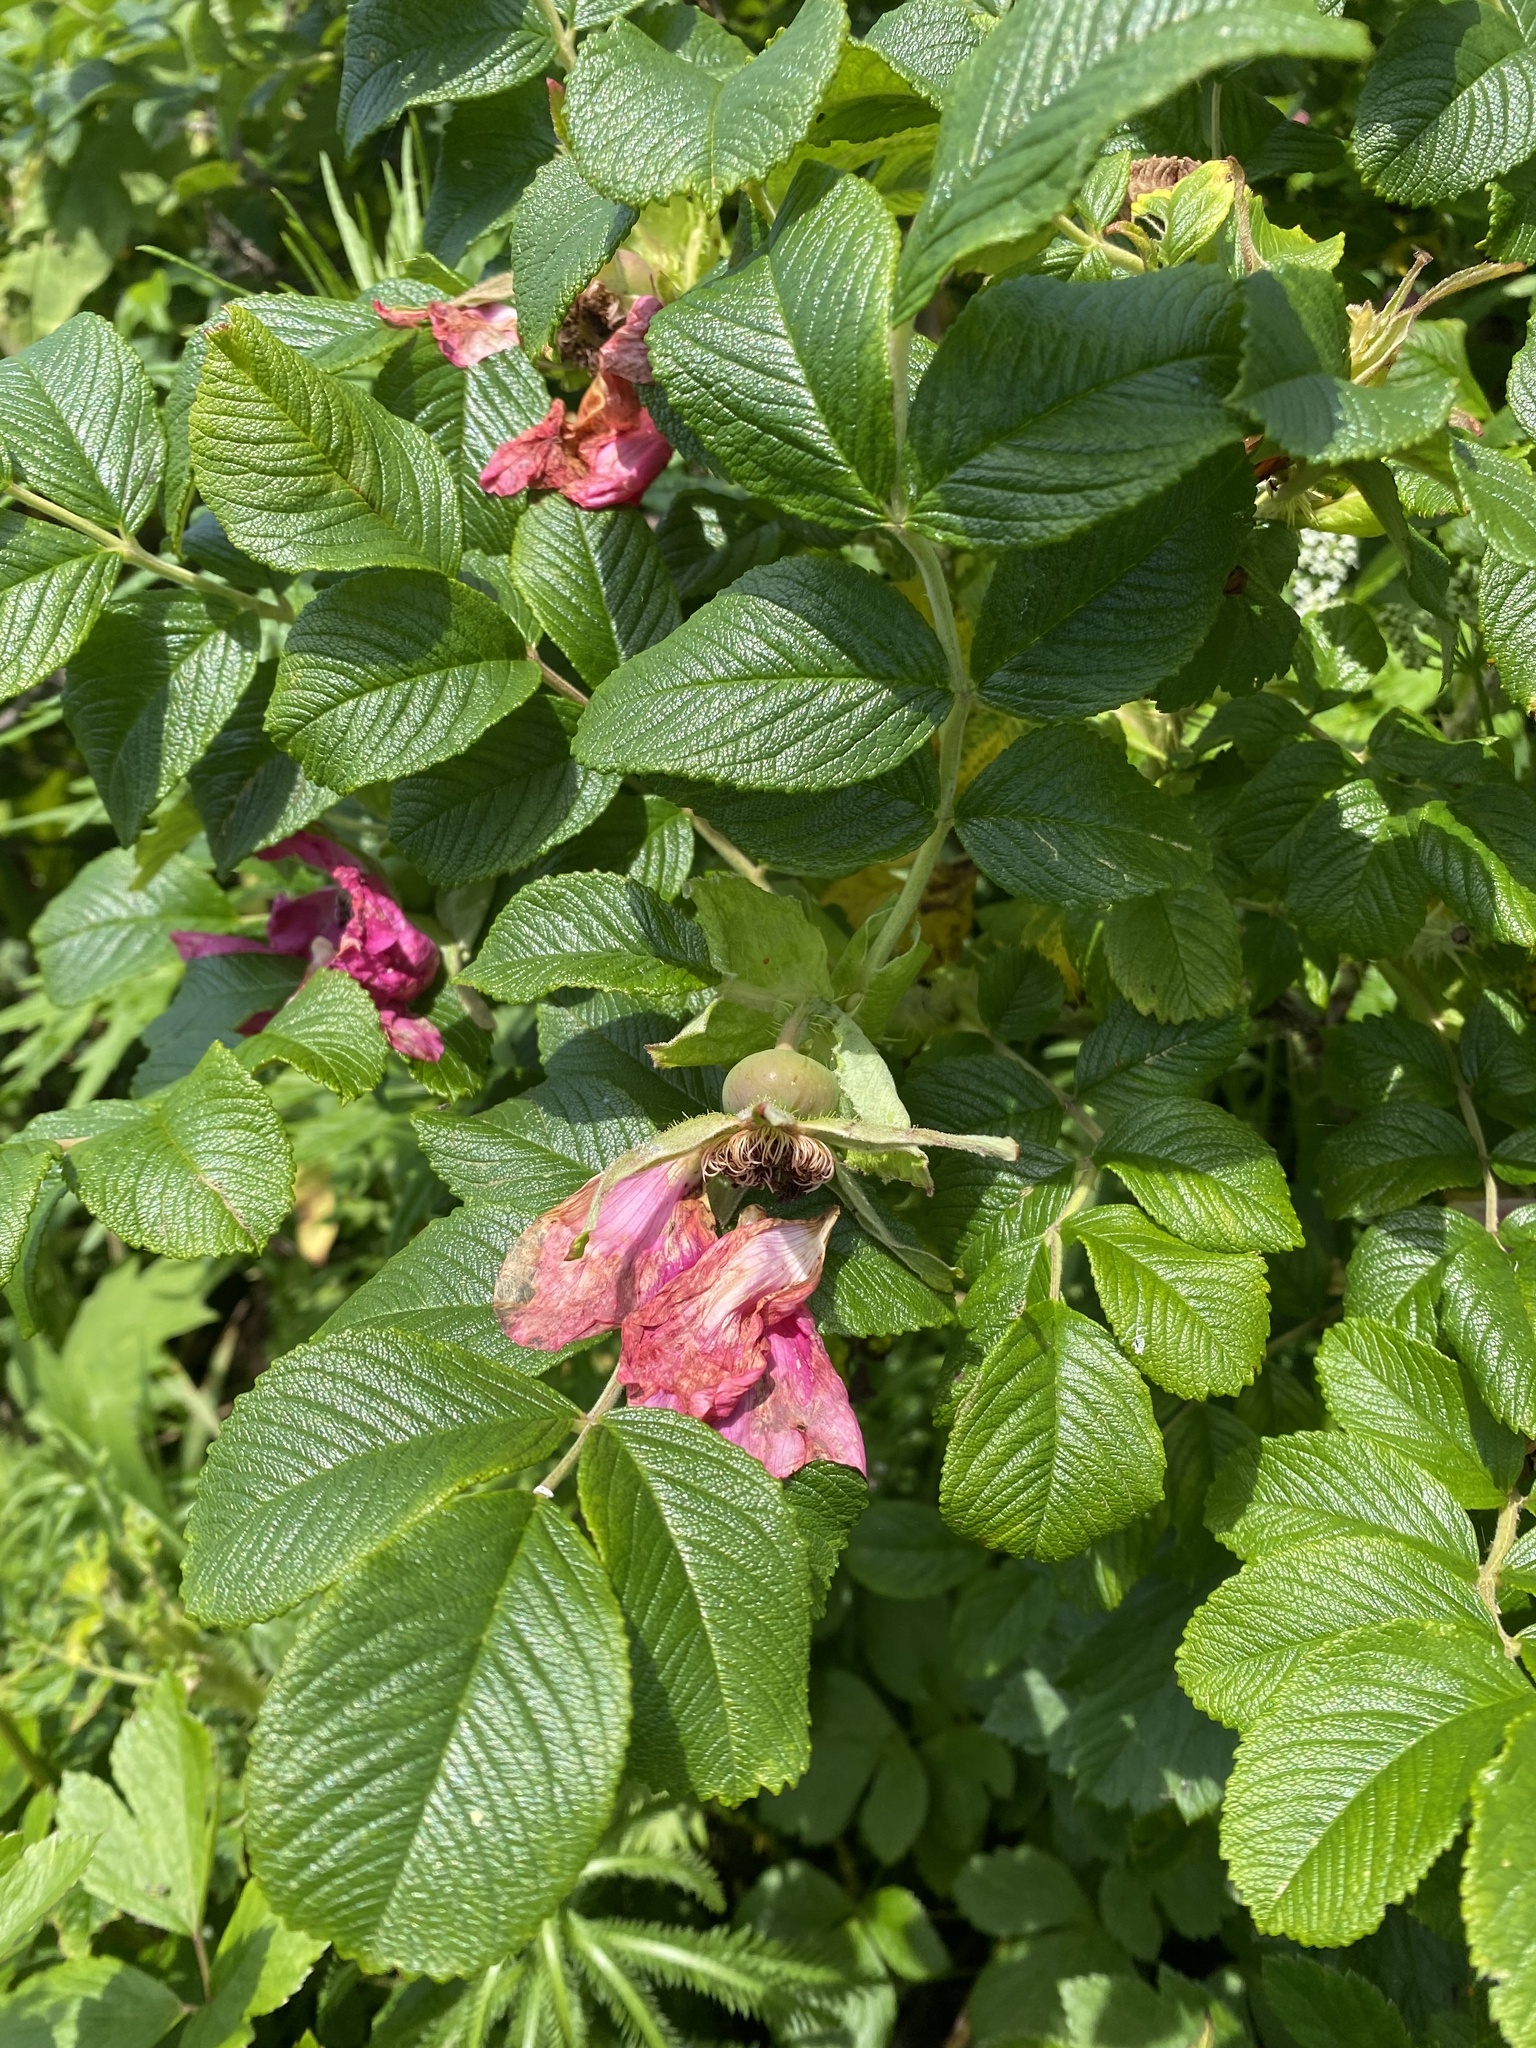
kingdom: Plantae
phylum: Tracheophyta
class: Magnoliopsida
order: Rosales
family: Rosaceae
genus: Rosa
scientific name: Rosa rugosa
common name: Japanese rose
